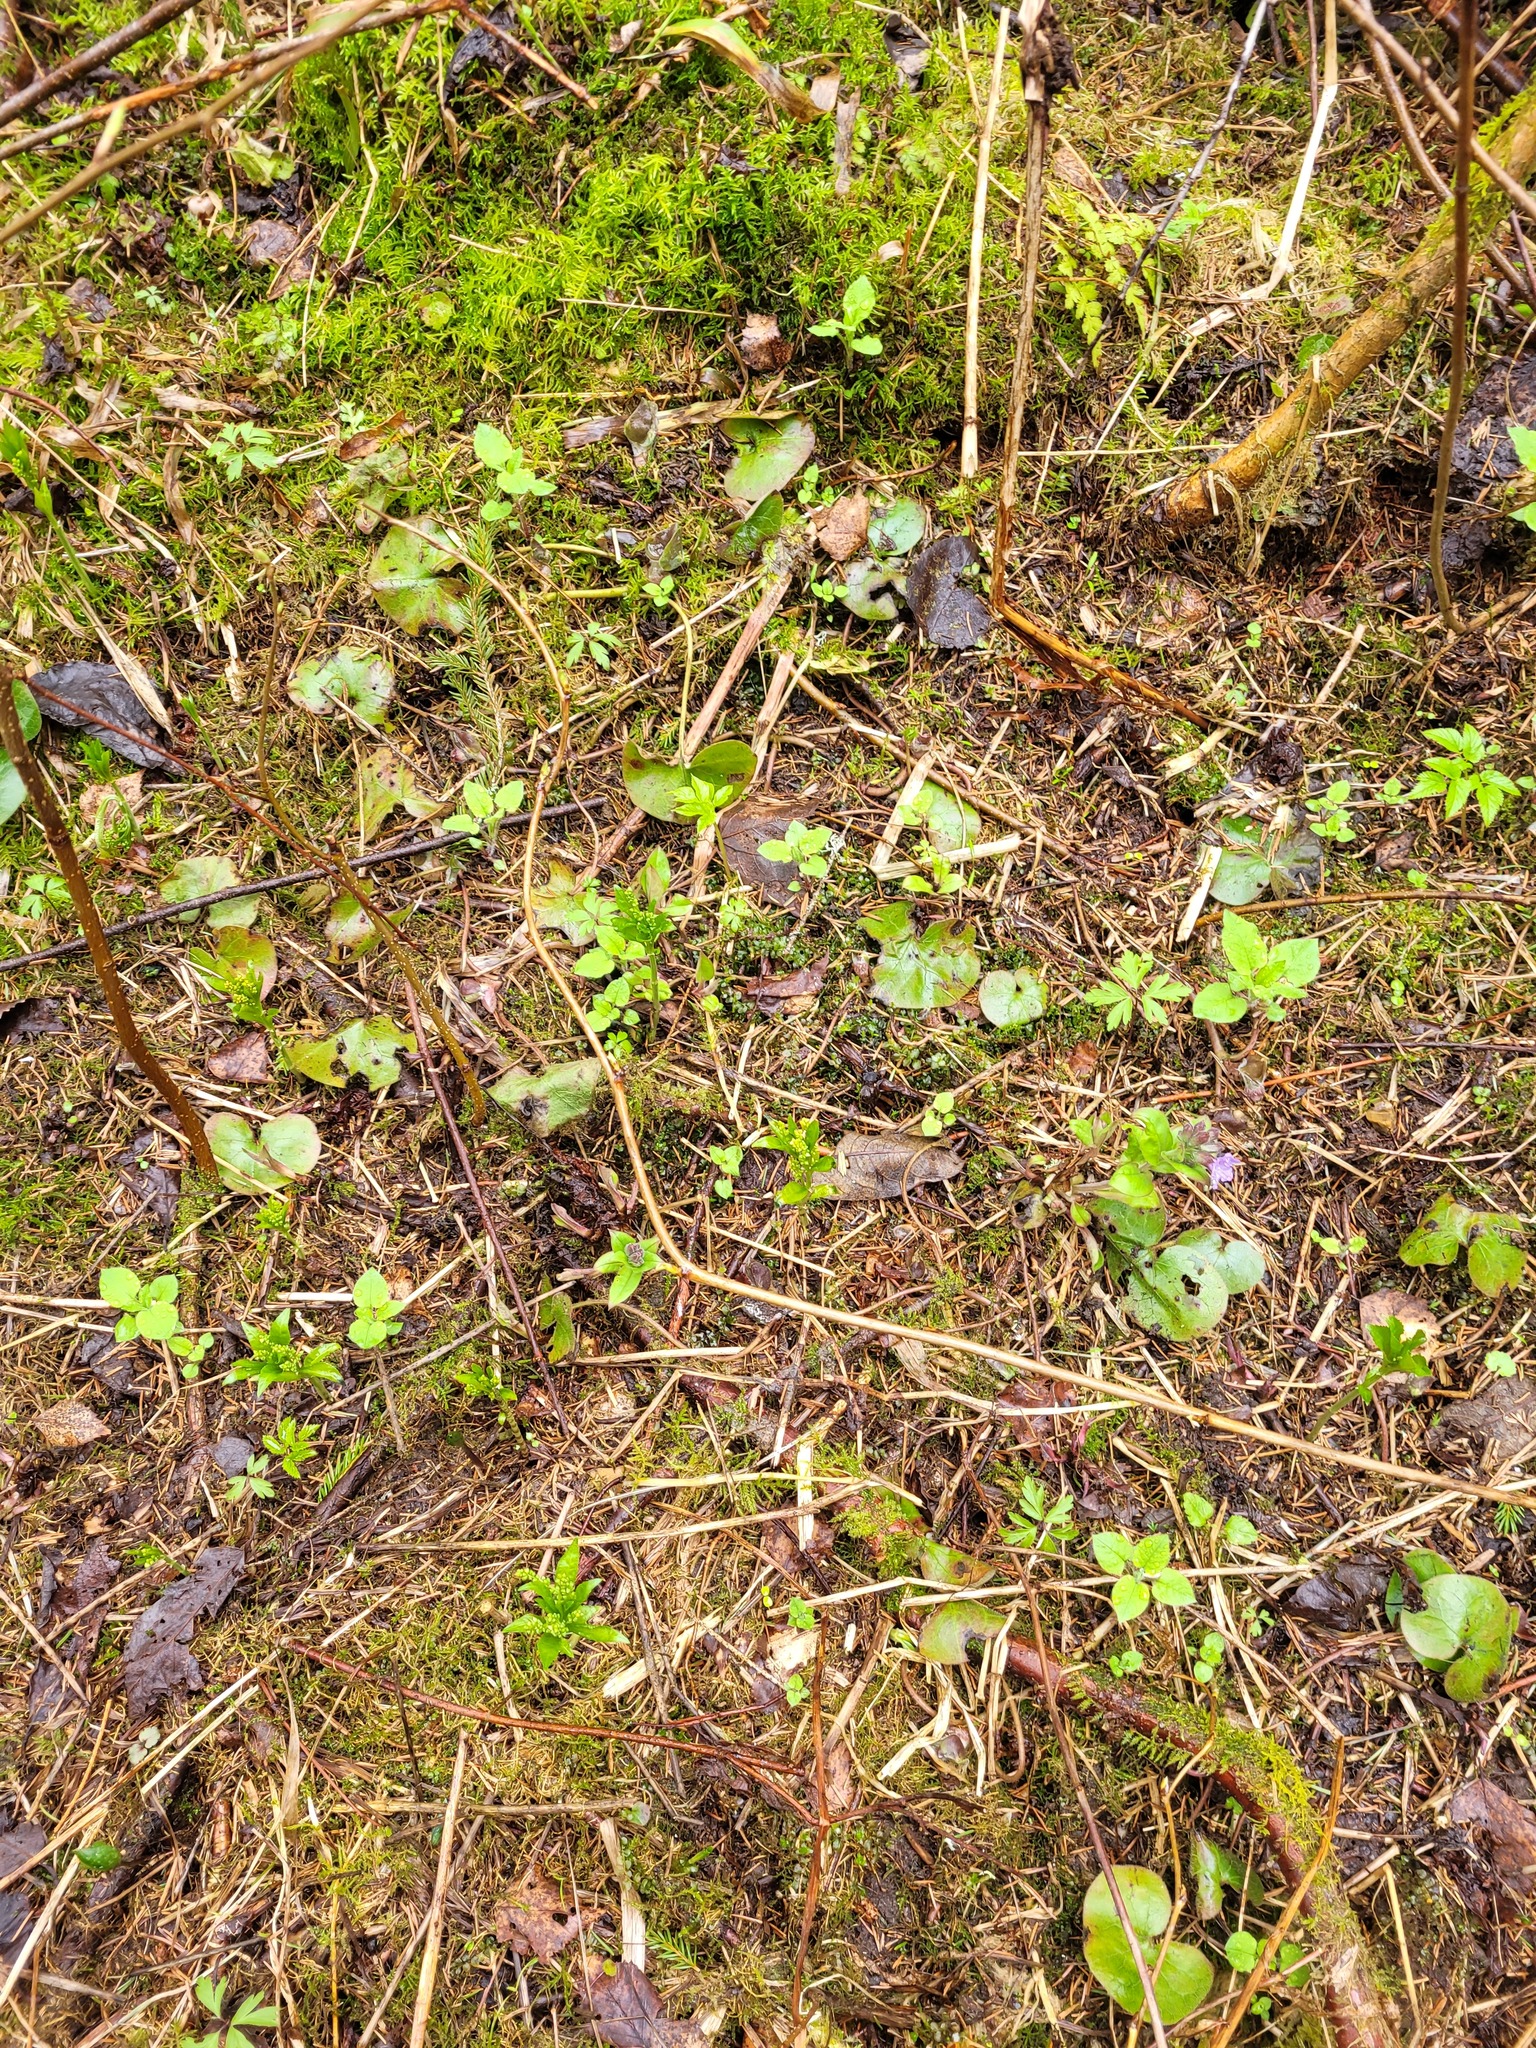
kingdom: Plantae
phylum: Tracheophyta
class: Magnoliopsida
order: Malpighiales
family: Euphorbiaceae
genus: Mercurialis
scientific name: Mercurialis perennis
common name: Dog mercury
